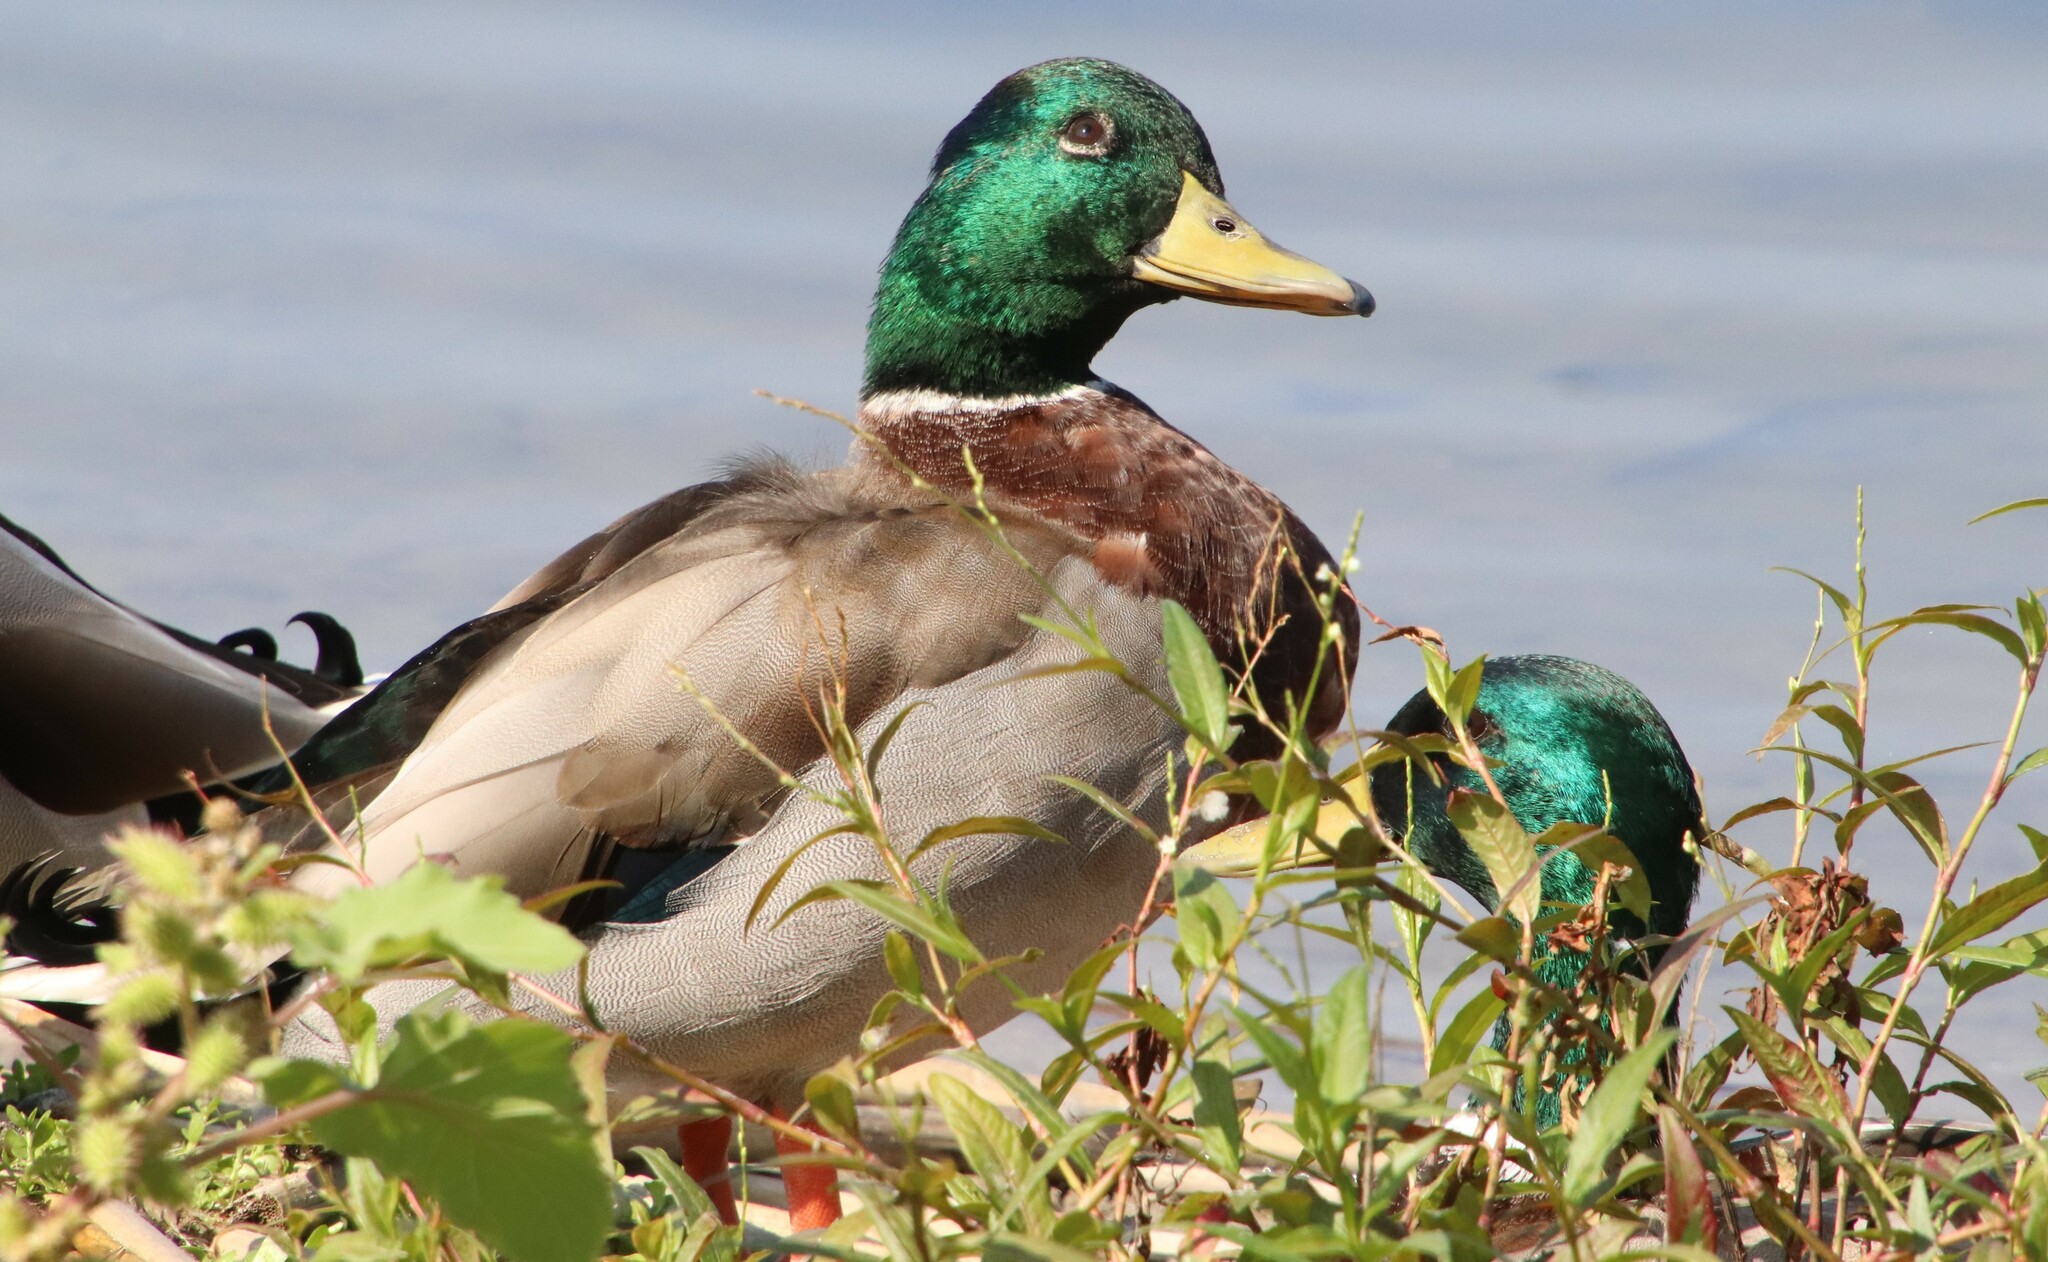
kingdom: Animalia
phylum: Chordata
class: Aves
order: Anseriformes
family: Anatidae
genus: Anas
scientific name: Anas platyrhynchos
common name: Mallard
